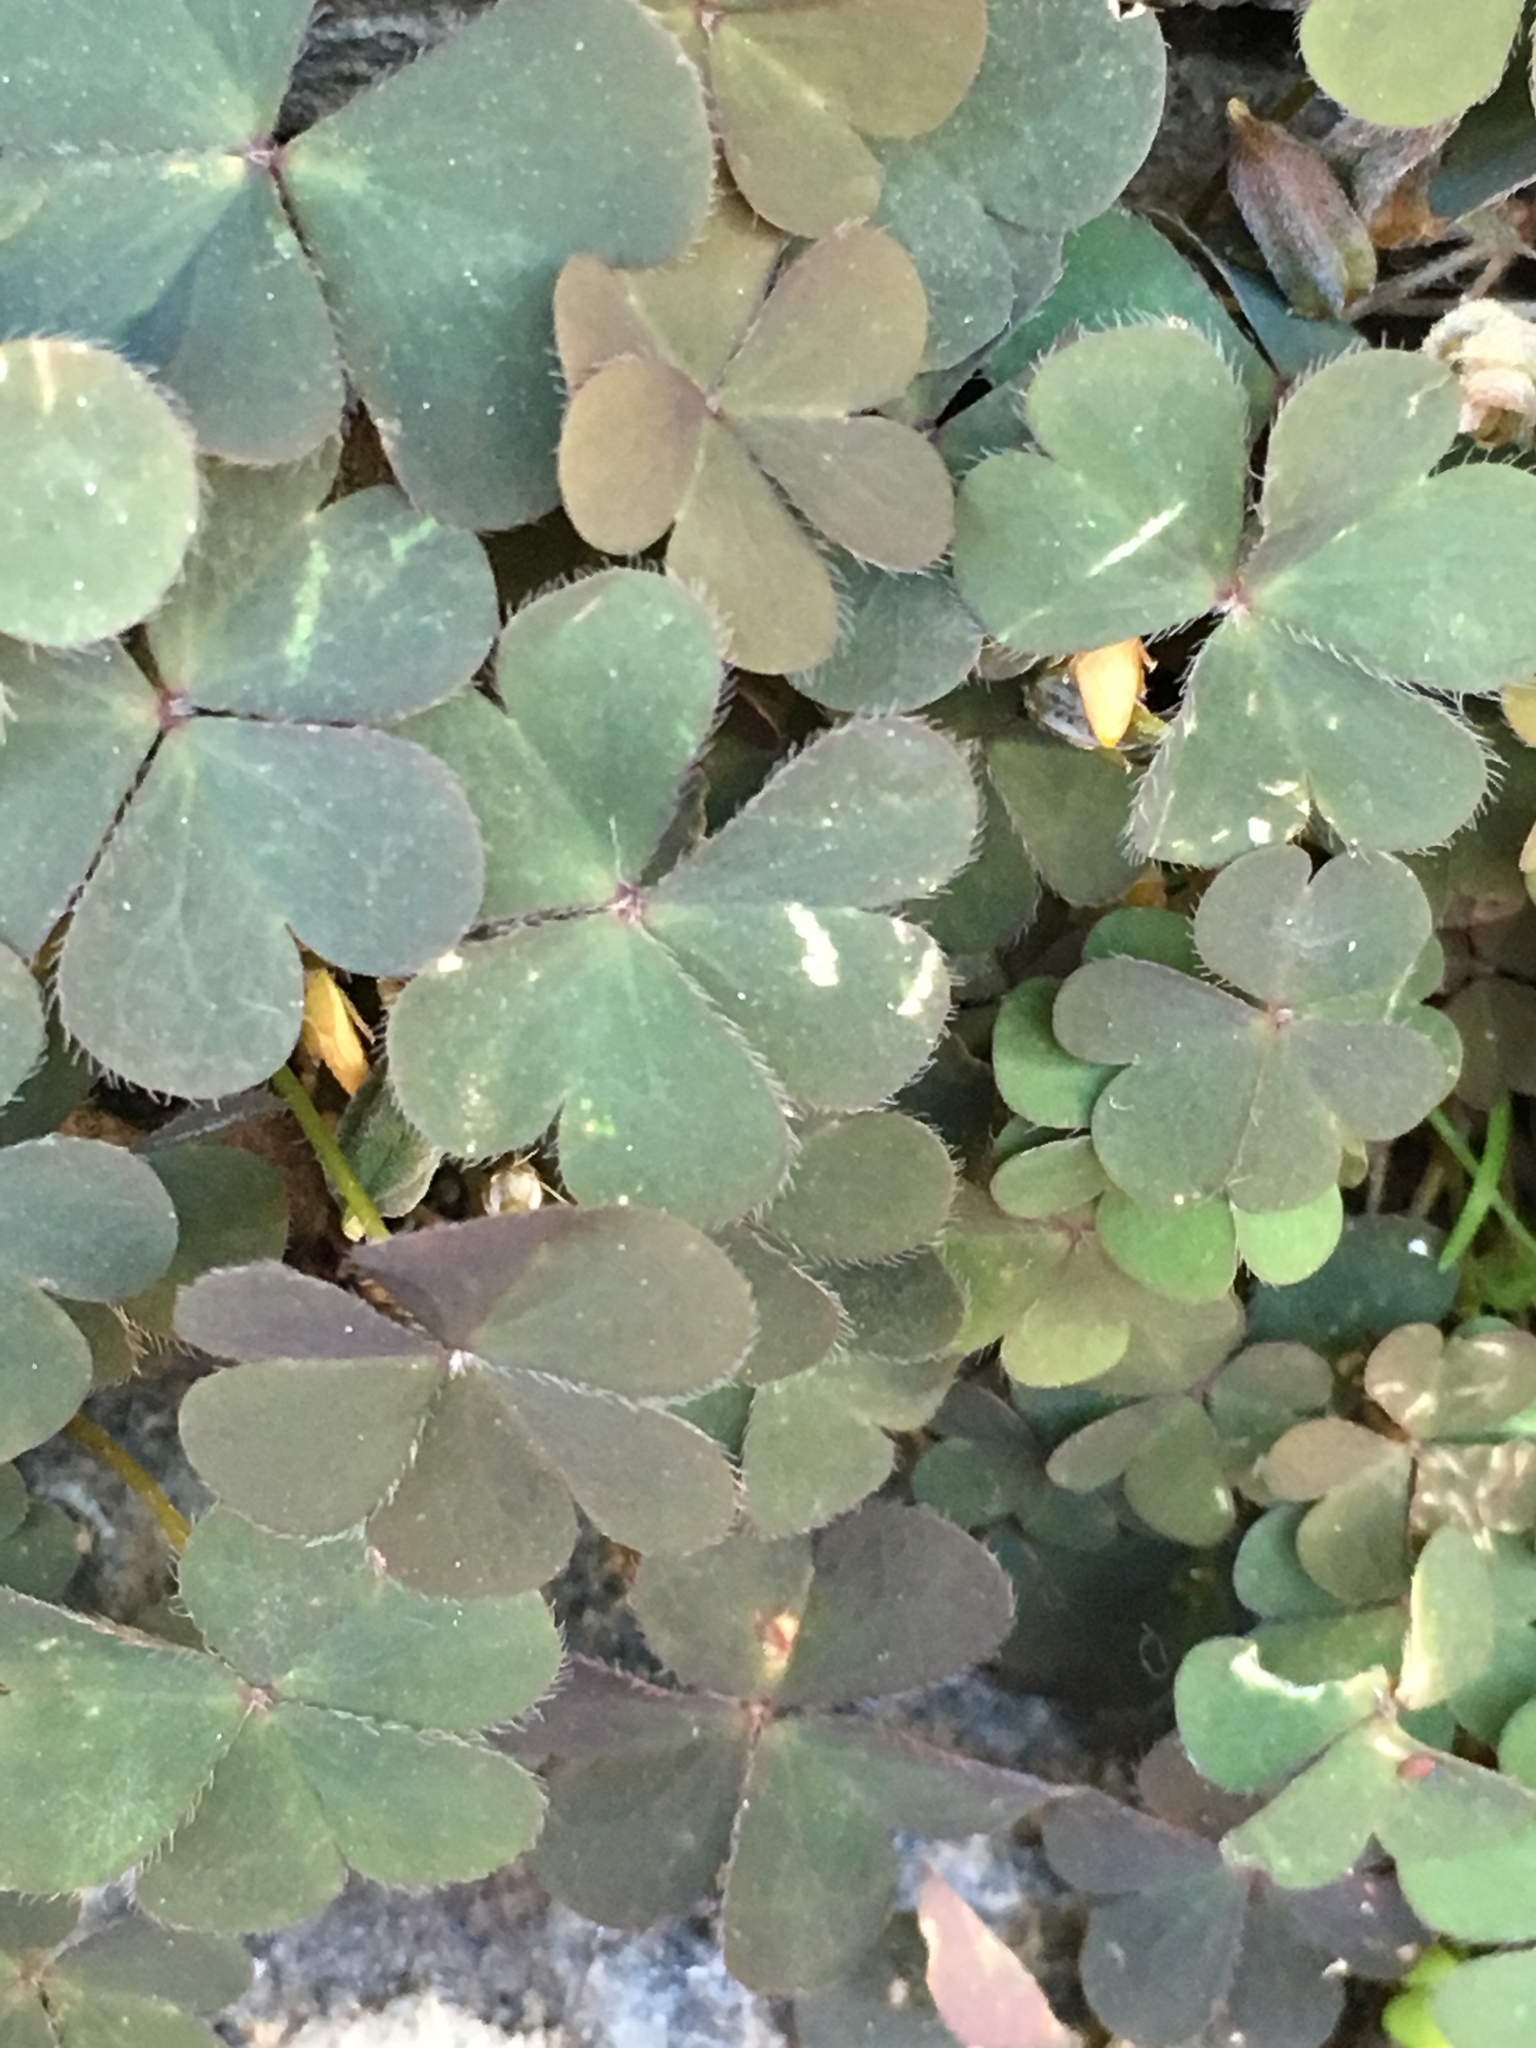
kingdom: Plantae
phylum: Tracheophyta
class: Magnoliopsida
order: Oxalidales
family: Oxalidaceae
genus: Oxalis
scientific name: Oxalis corniculata
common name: Procumbent yellow-sorrel
